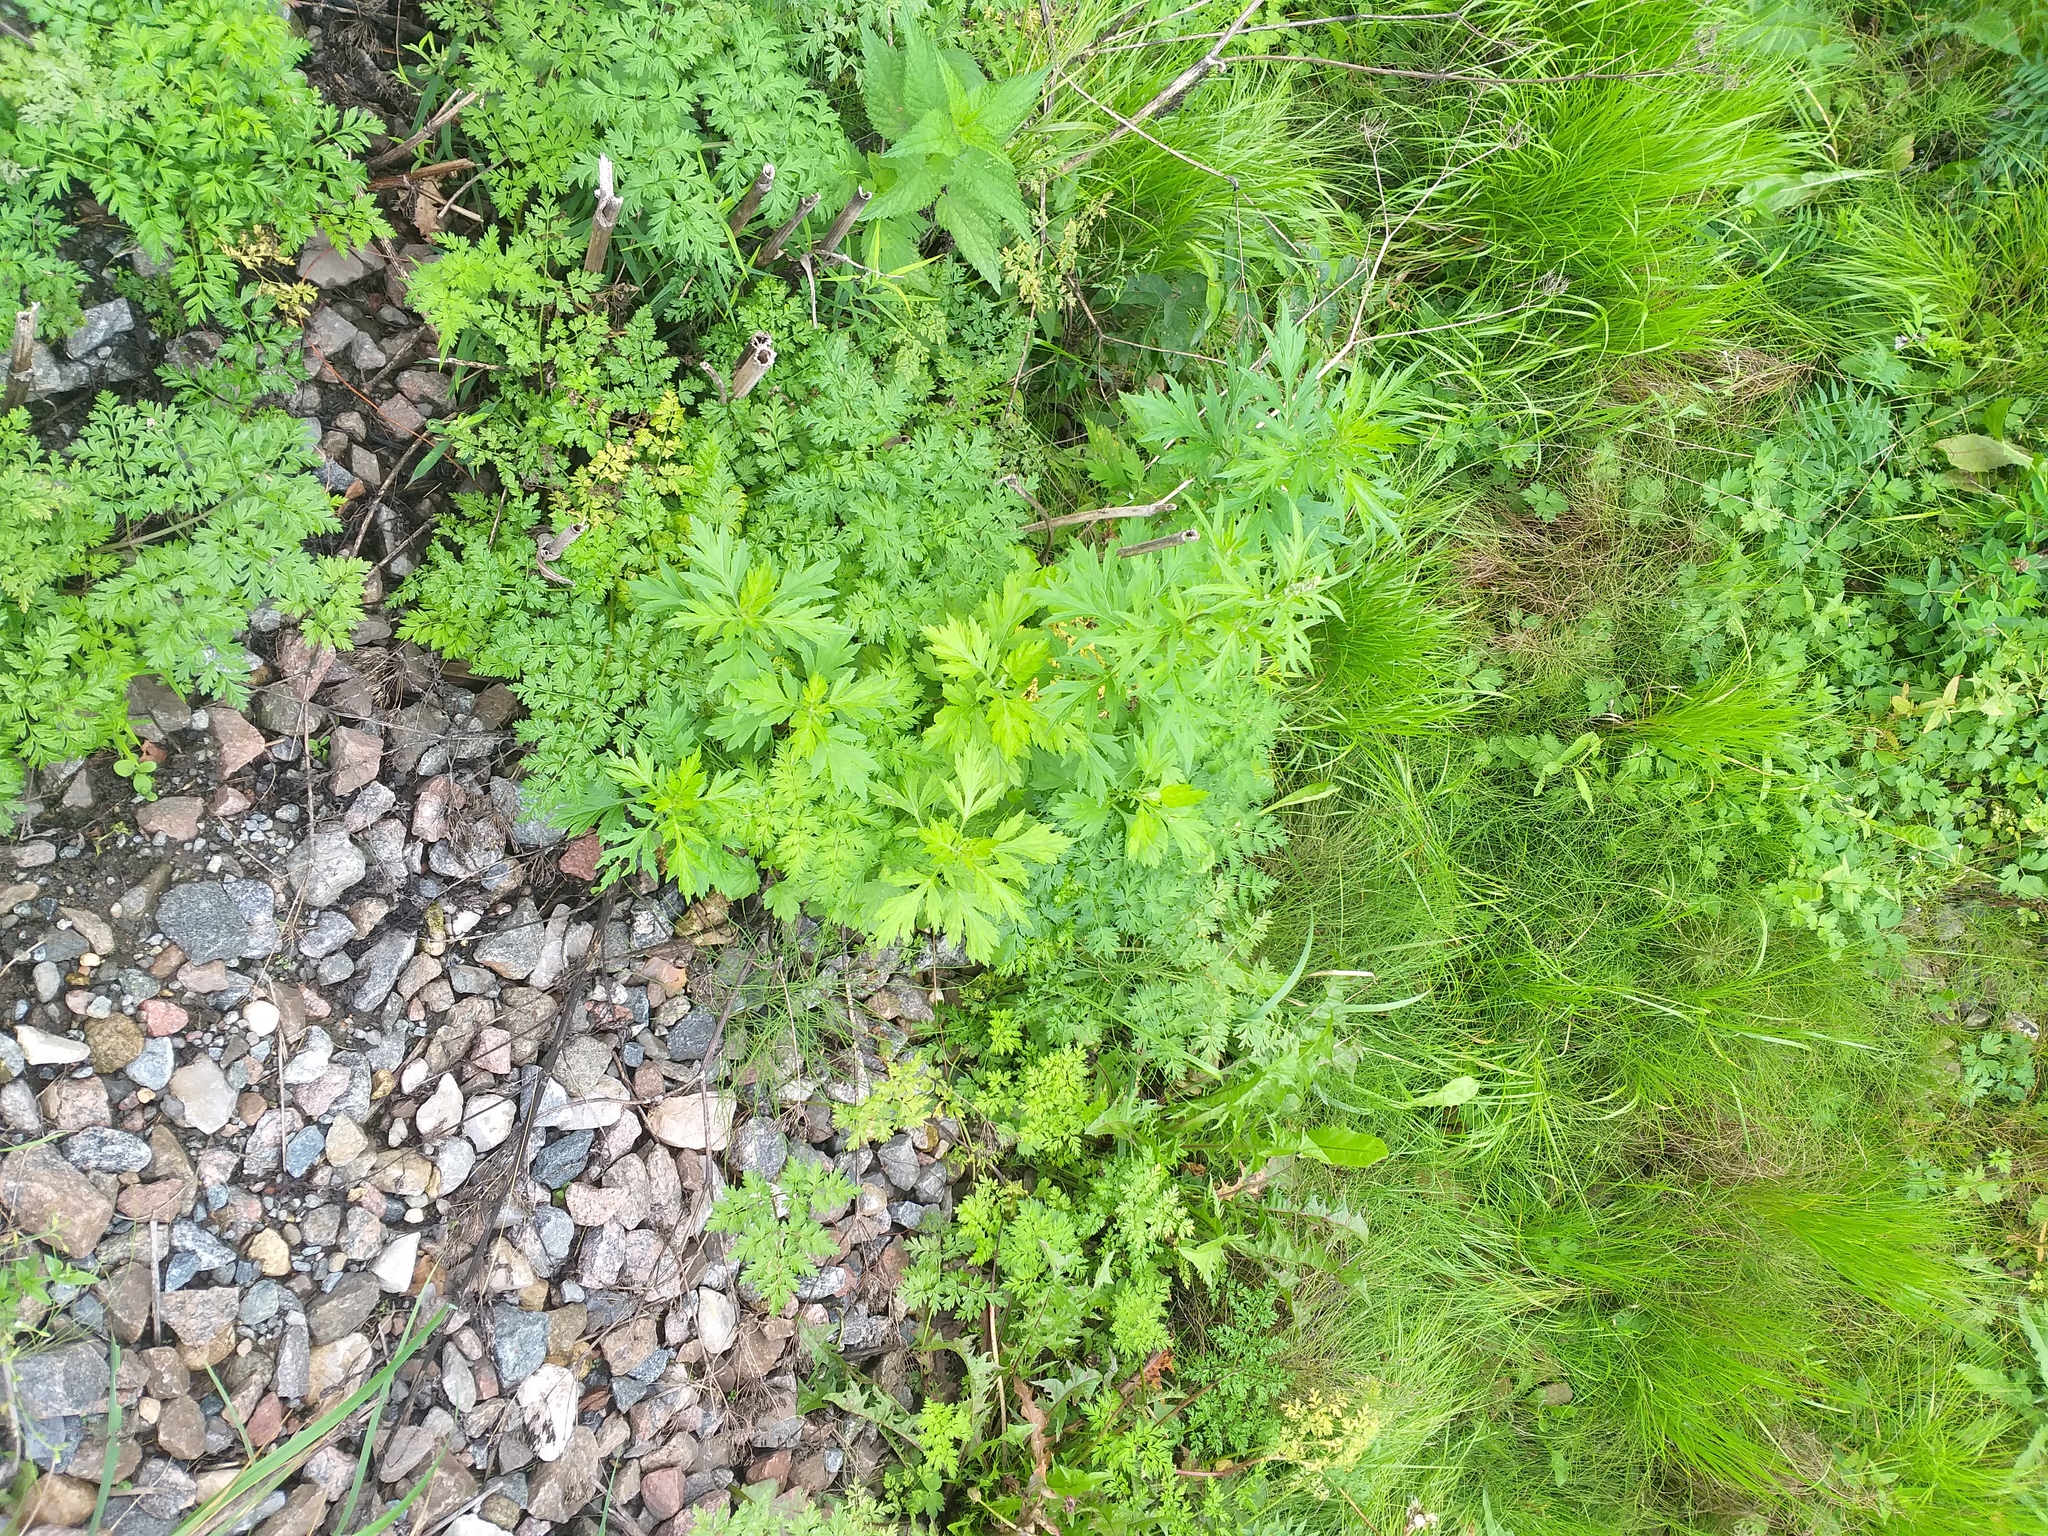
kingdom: Plantae
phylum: Tracheophyta
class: Magnoliopsida
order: Asterales
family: Asteraceae
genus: Artemisia
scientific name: Artemisia vulgaris
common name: Mugwort
